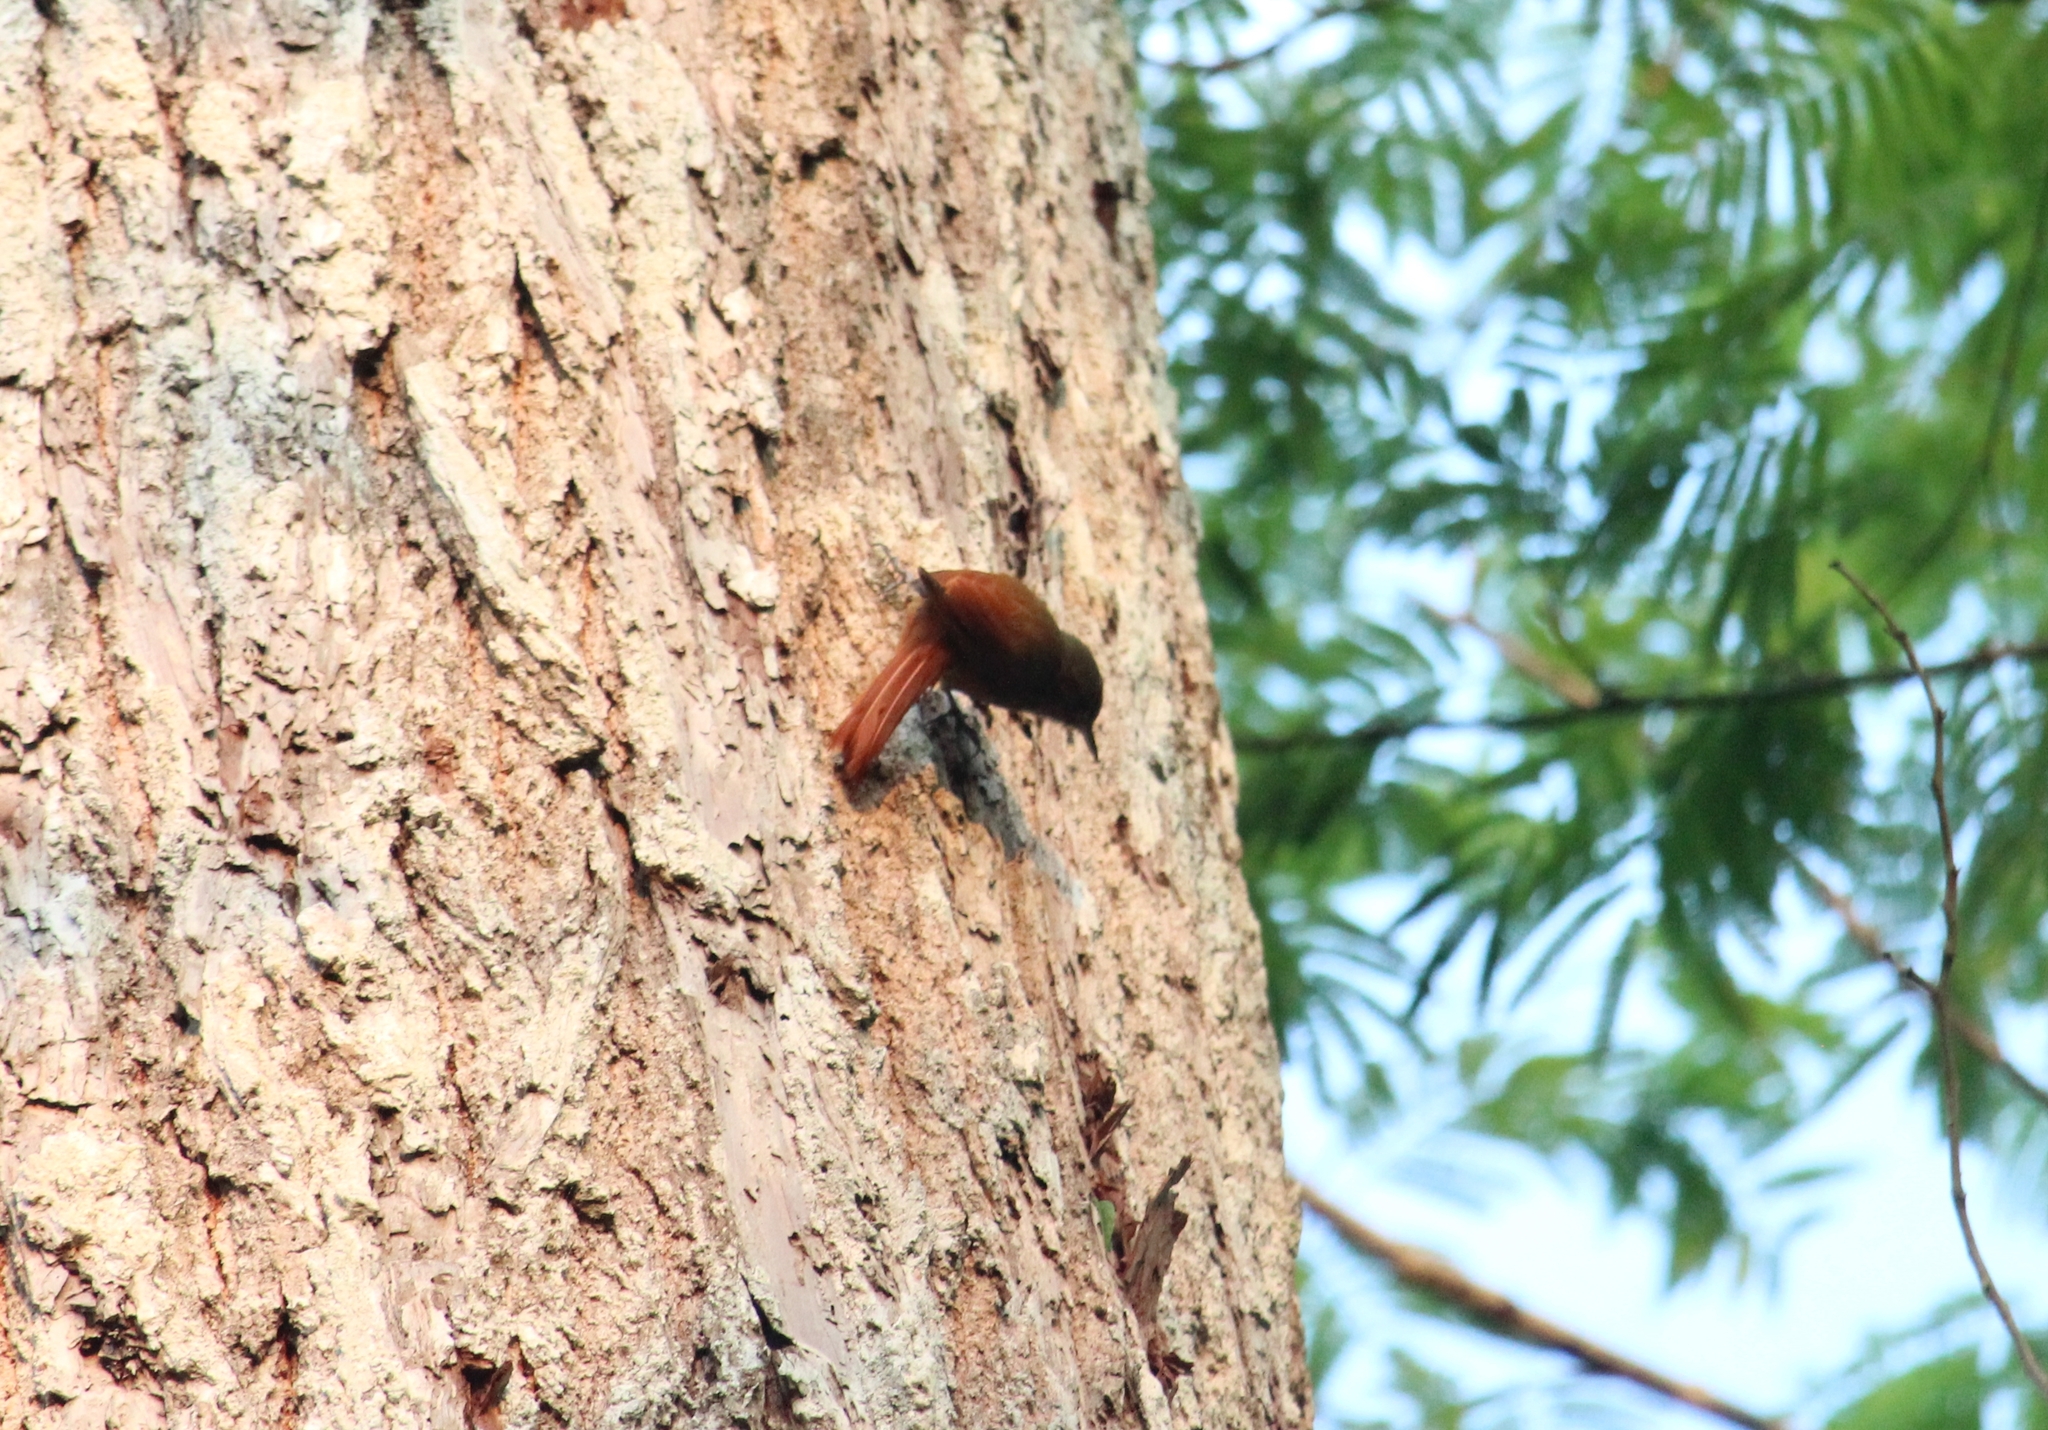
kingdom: Animalia
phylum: Chordata
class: Aves
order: Passeriformes
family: Furnariidae
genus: Sittasomus
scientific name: Sittasomus griseicapillus
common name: Olivaceous woodcreeper
